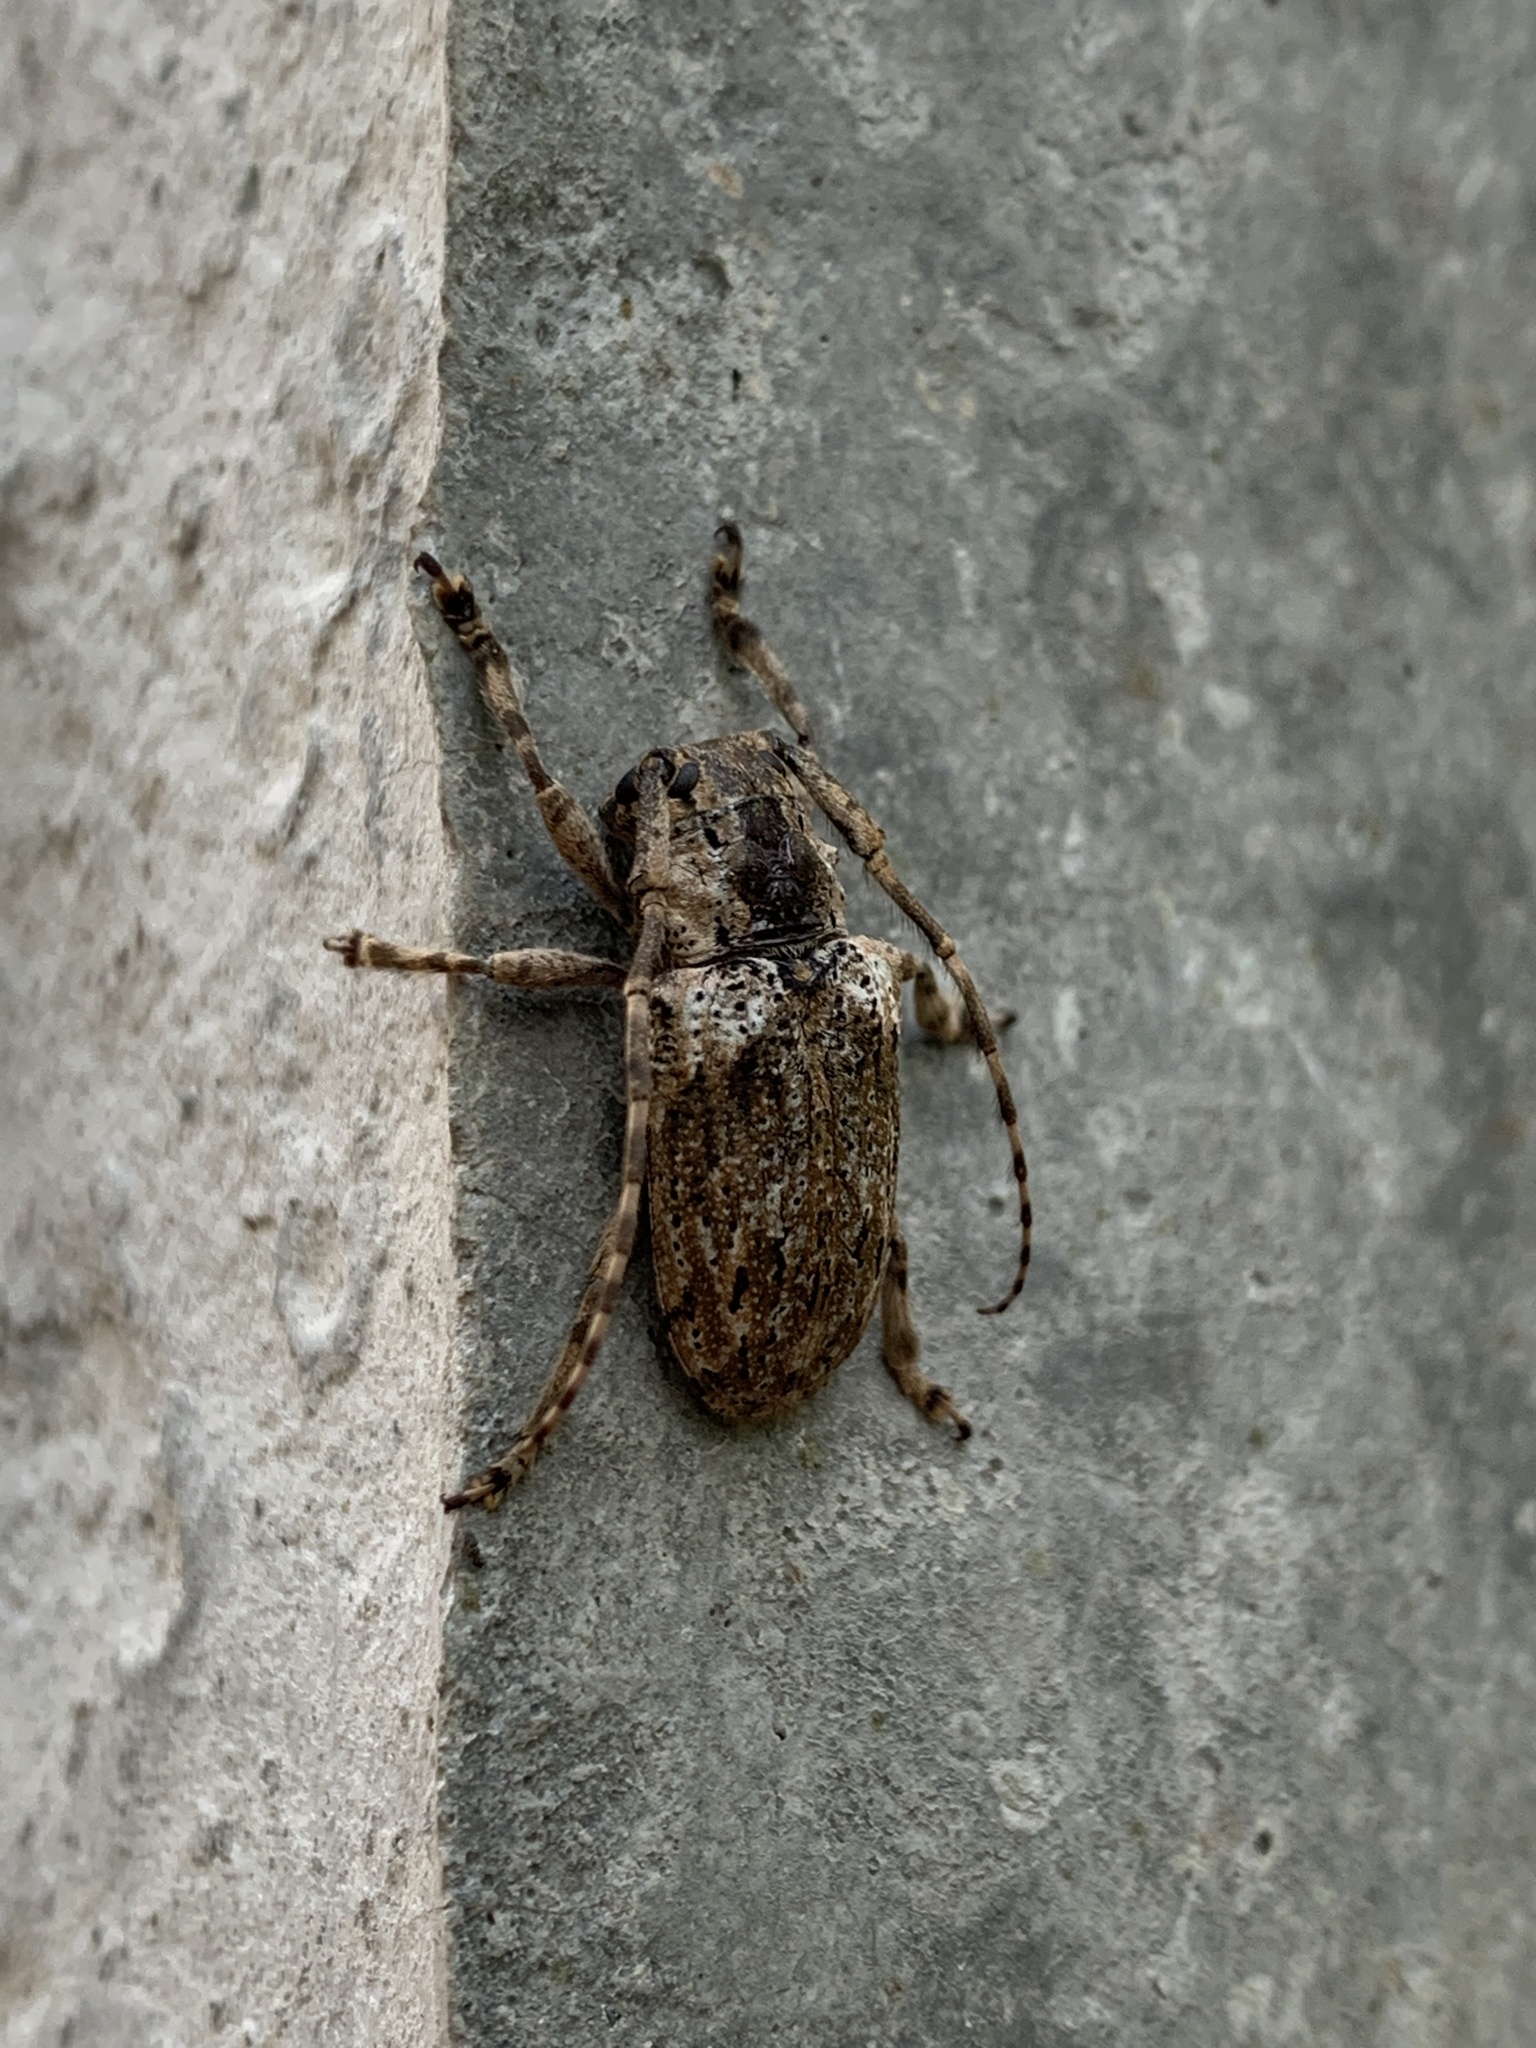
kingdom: Animalia
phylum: Arthropoda
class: Insecta
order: Coleoptera
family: Cerambycidae
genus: Coptops
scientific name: Coptops aedificator
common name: Long-horned beetle
